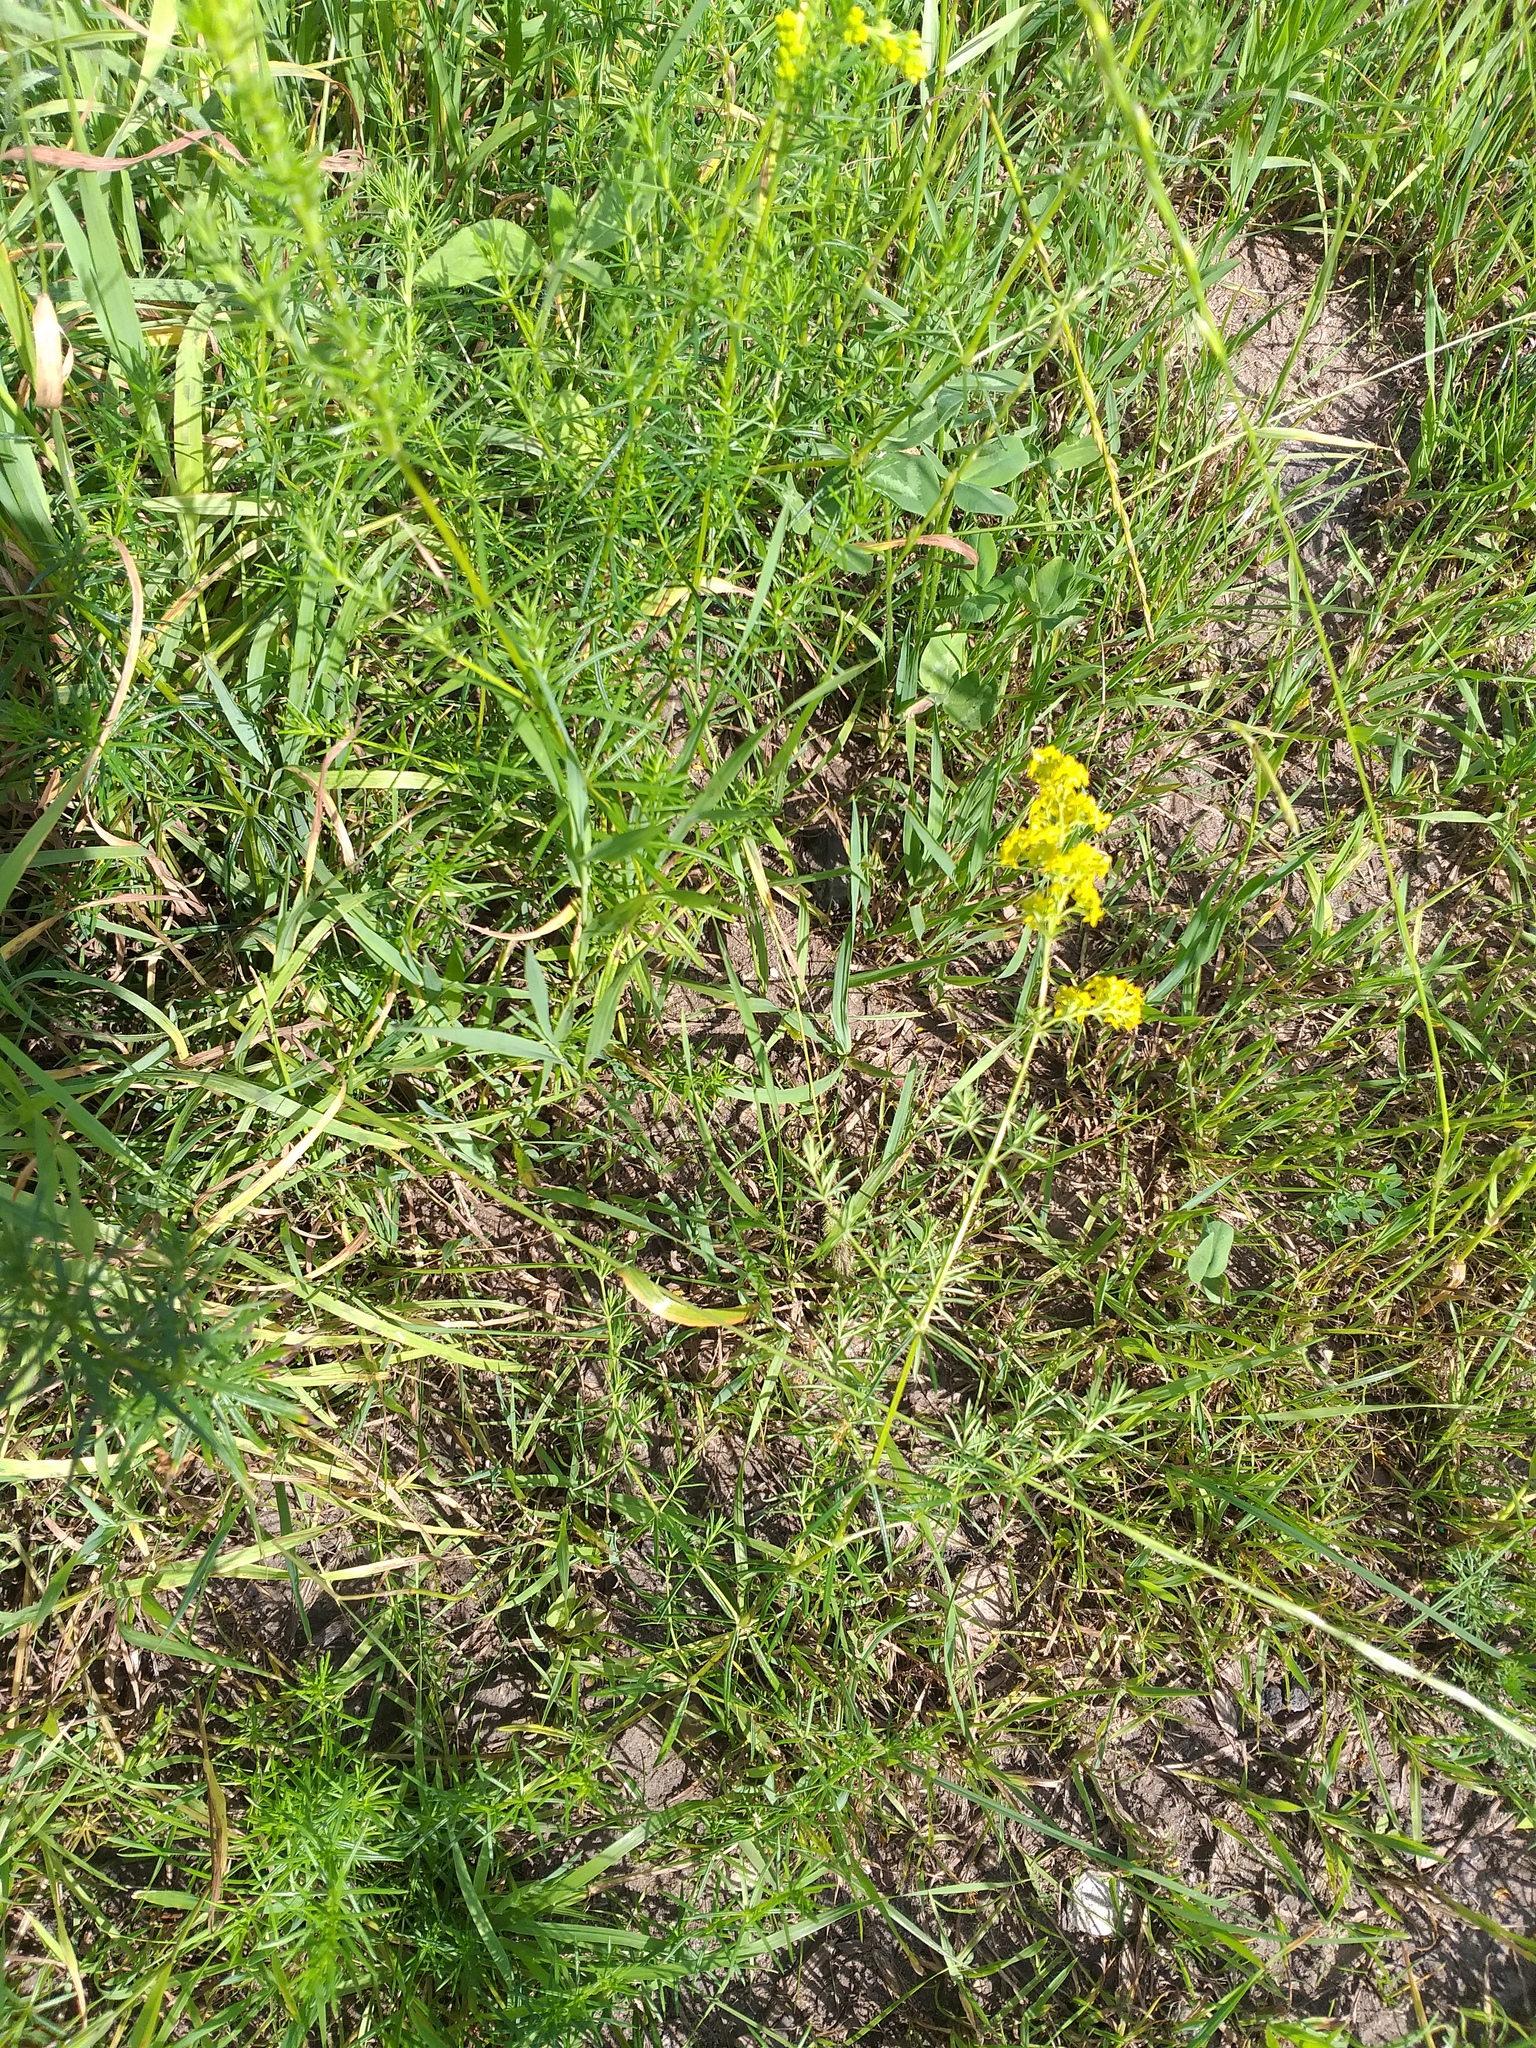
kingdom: Plantae
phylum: Tracheophyta
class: Magnoliopsida
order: Gentianales
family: Rubiaceae
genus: Galium
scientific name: Galium verum
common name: Lady's bedstraw
